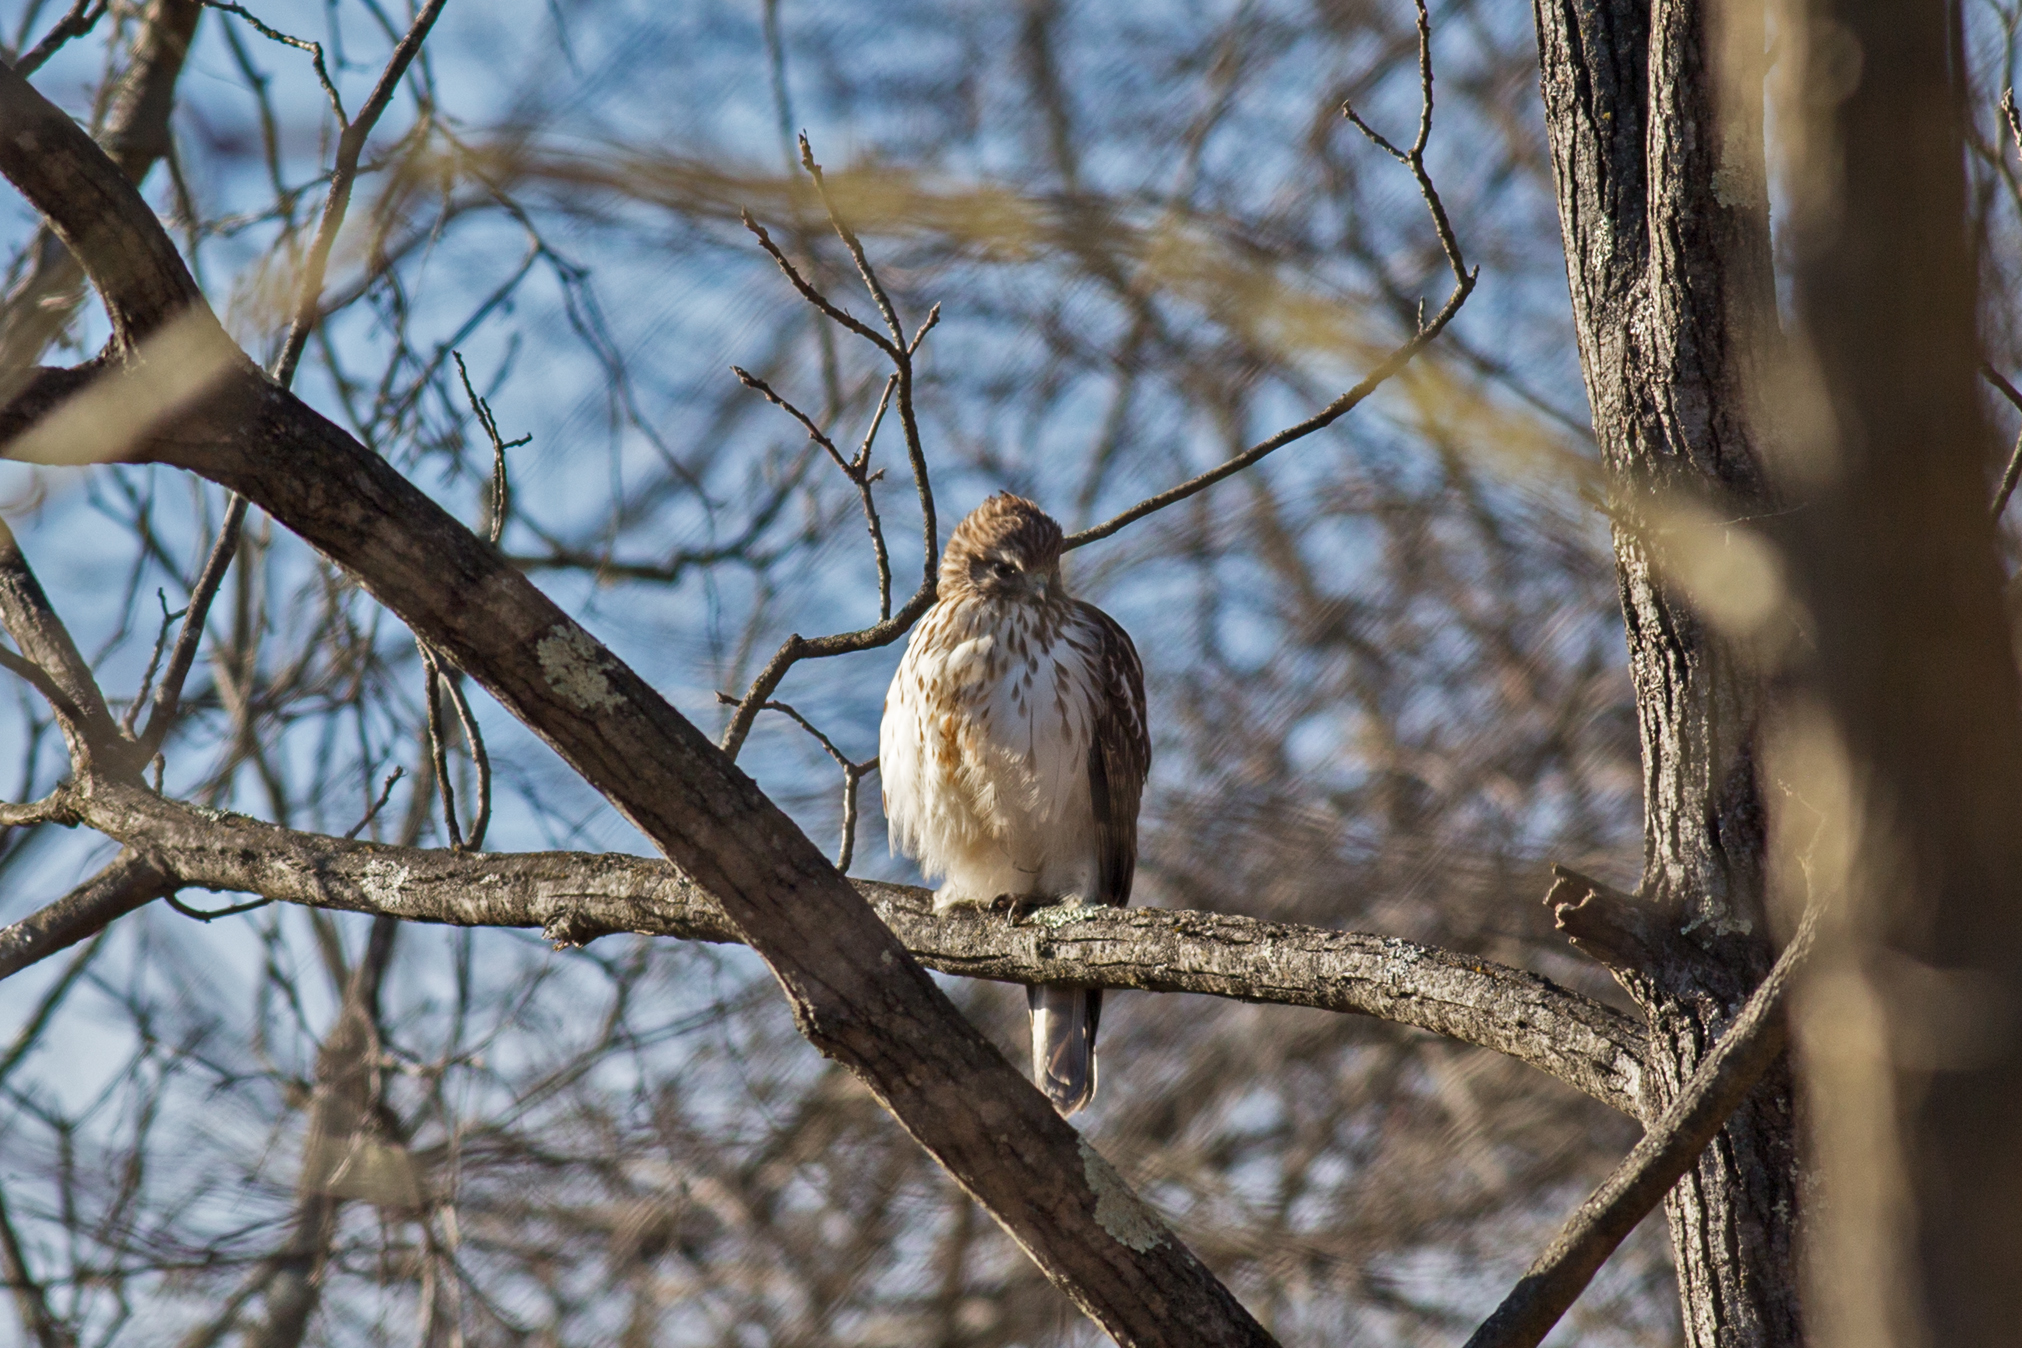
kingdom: Animalia
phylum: Chordata
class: Aves
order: Accipitriformes
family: Accipitridae
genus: Buteo
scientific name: Buteo lineatus
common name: Red-shouldered hawk
